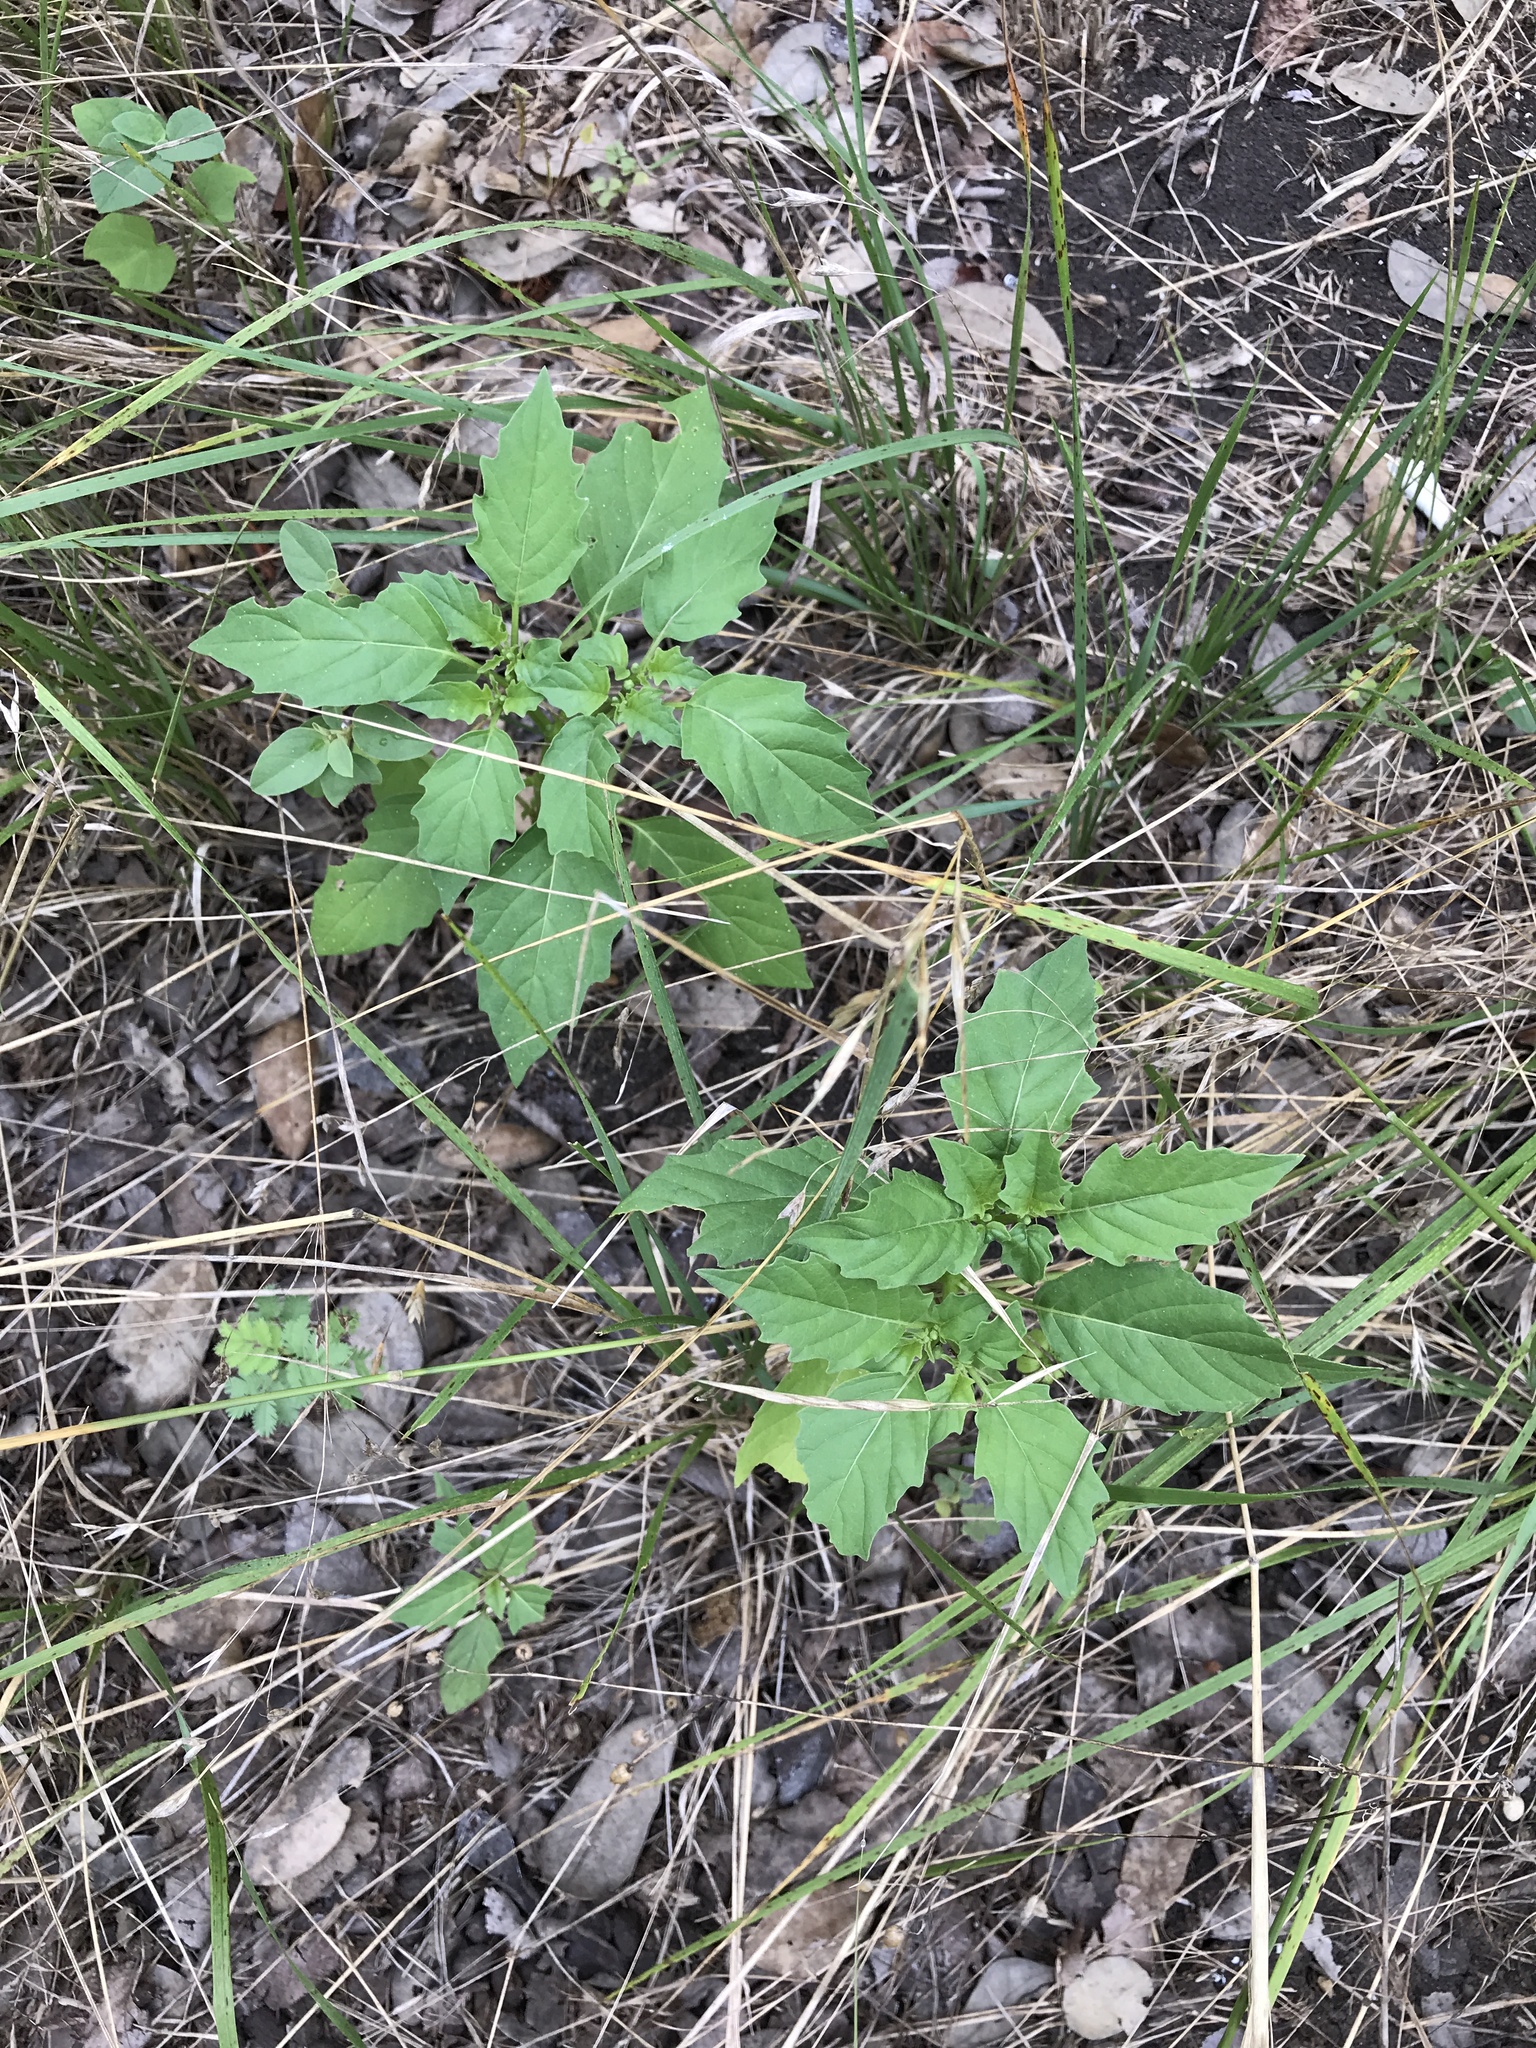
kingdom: Plantae
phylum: Tracheophyta
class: Magnoliopsida
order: Solanales
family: Solanaceae
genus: Physalis
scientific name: Physalis angulata
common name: Angular winter-cherry
